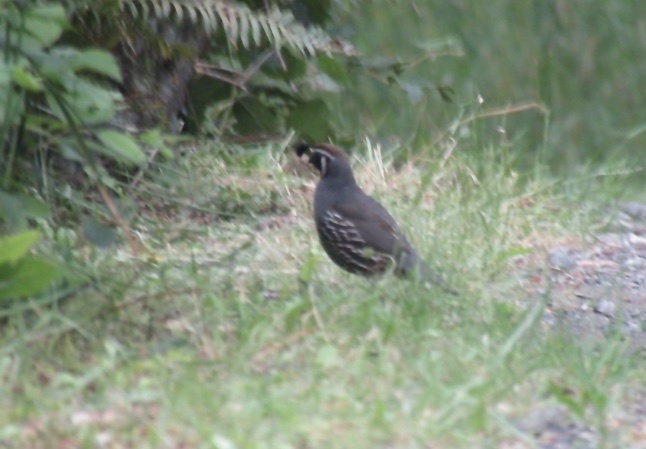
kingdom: Animalia
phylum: Chordata
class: Aves
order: Galliformes
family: Odontophoridae
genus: Callipepla
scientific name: Callipepla californica
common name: California quail
